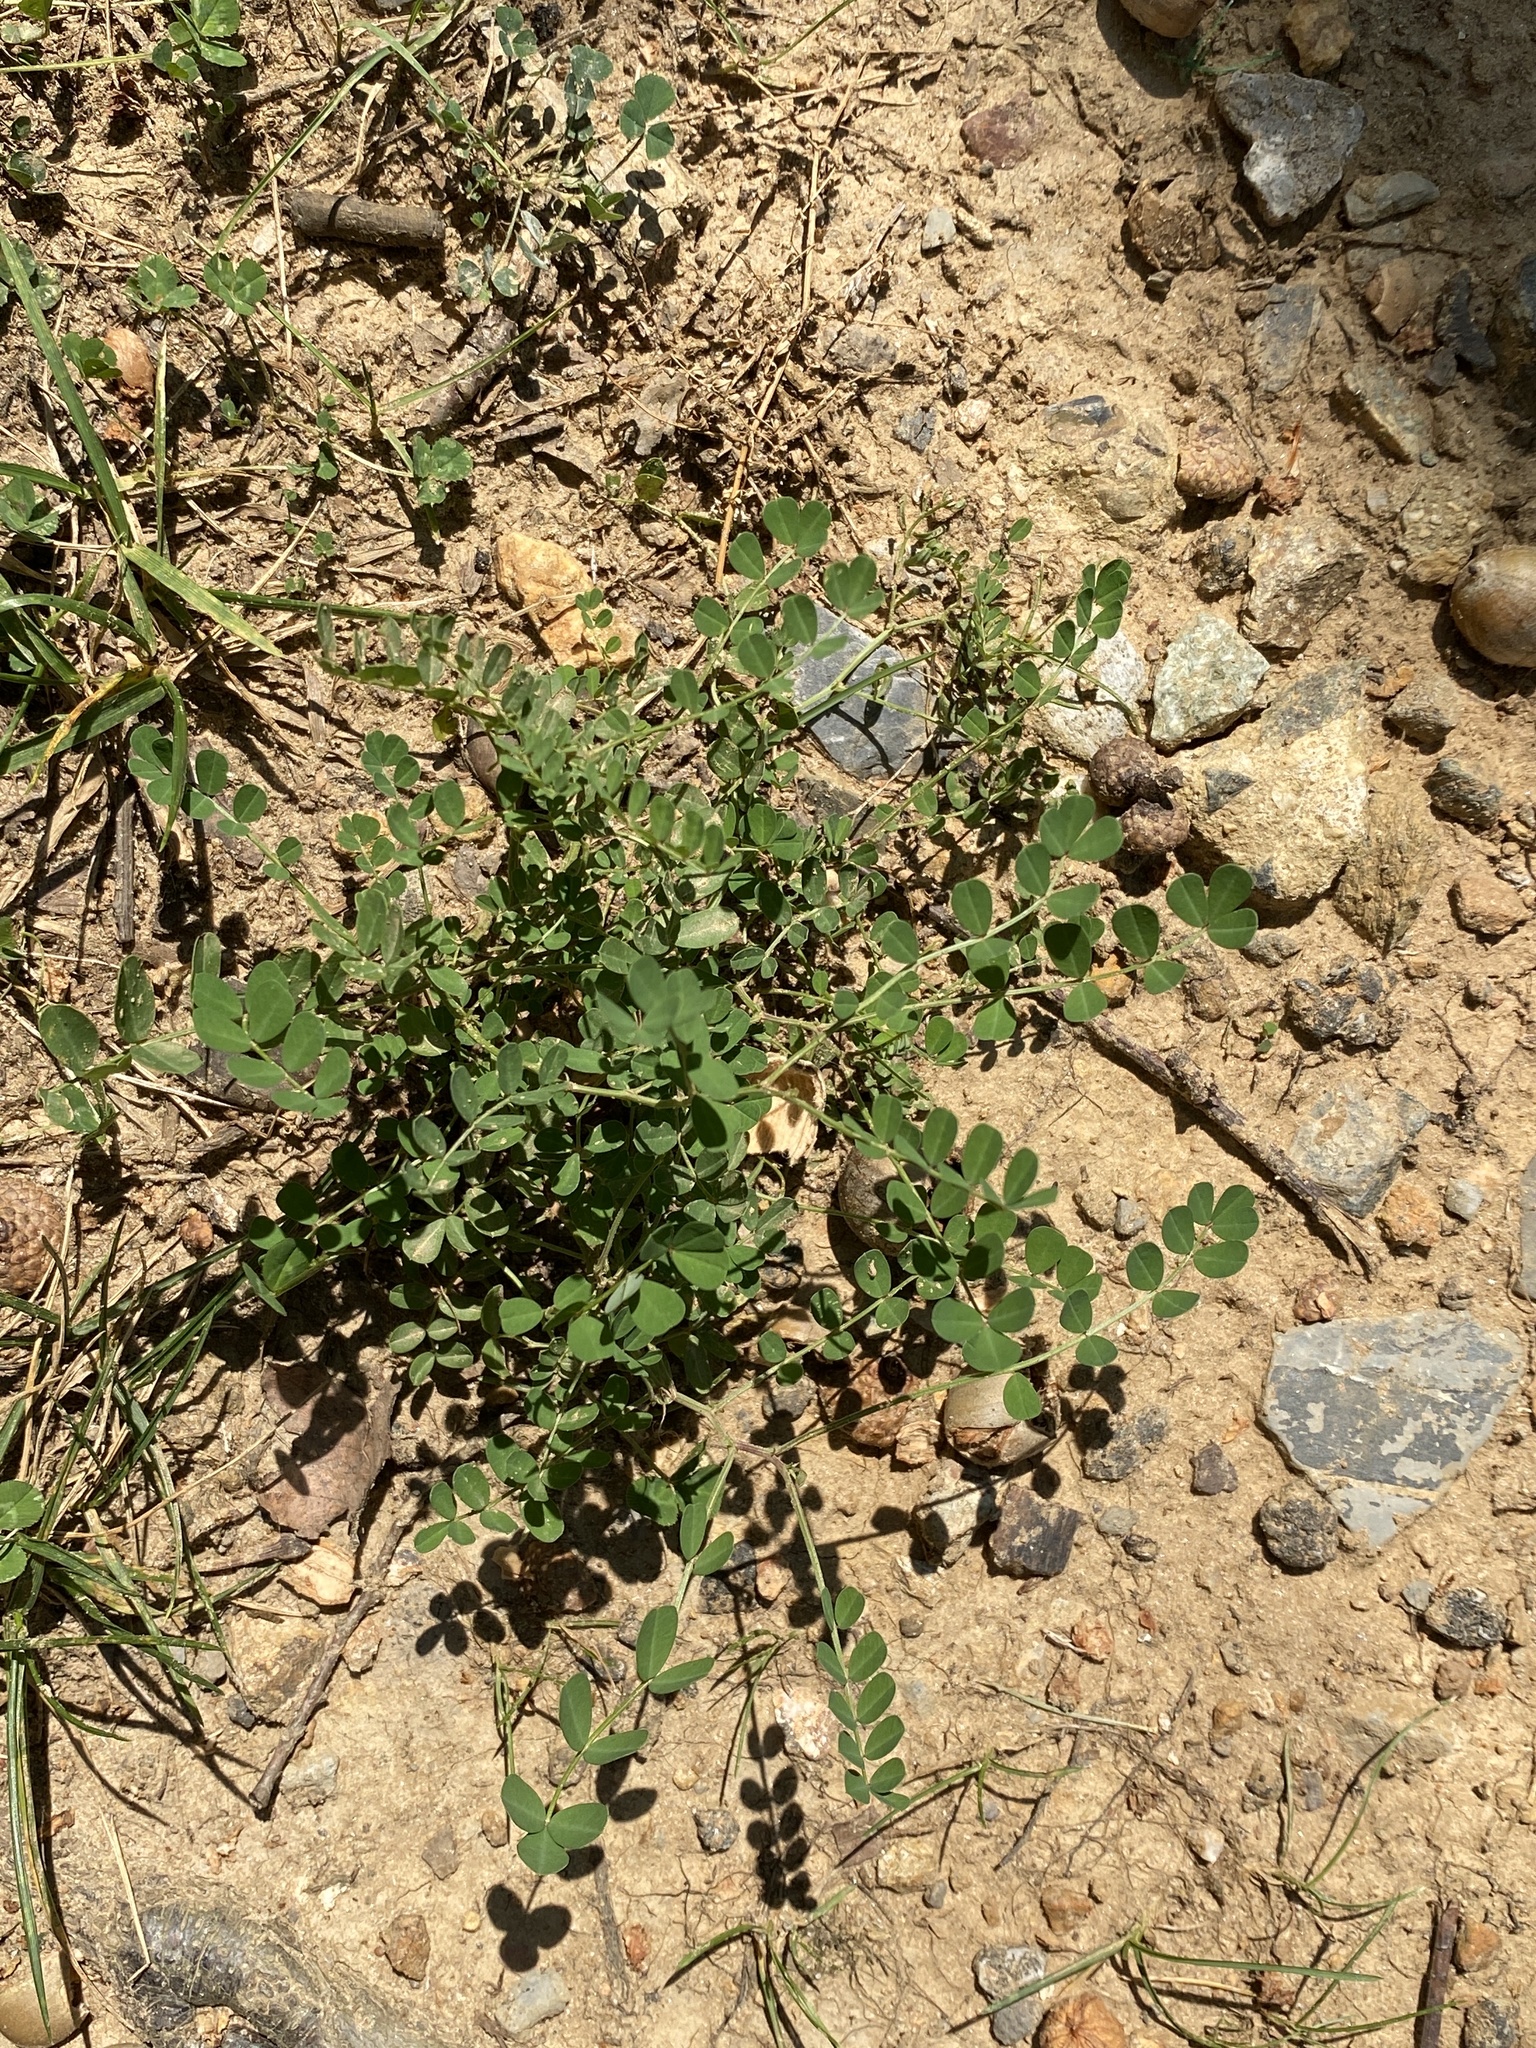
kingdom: Plantae
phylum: Tracheophyta
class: Magnoliopsida
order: Fabales
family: Fabaceae
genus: Coronilla
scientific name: Coronilla varia
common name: Crownvetch
